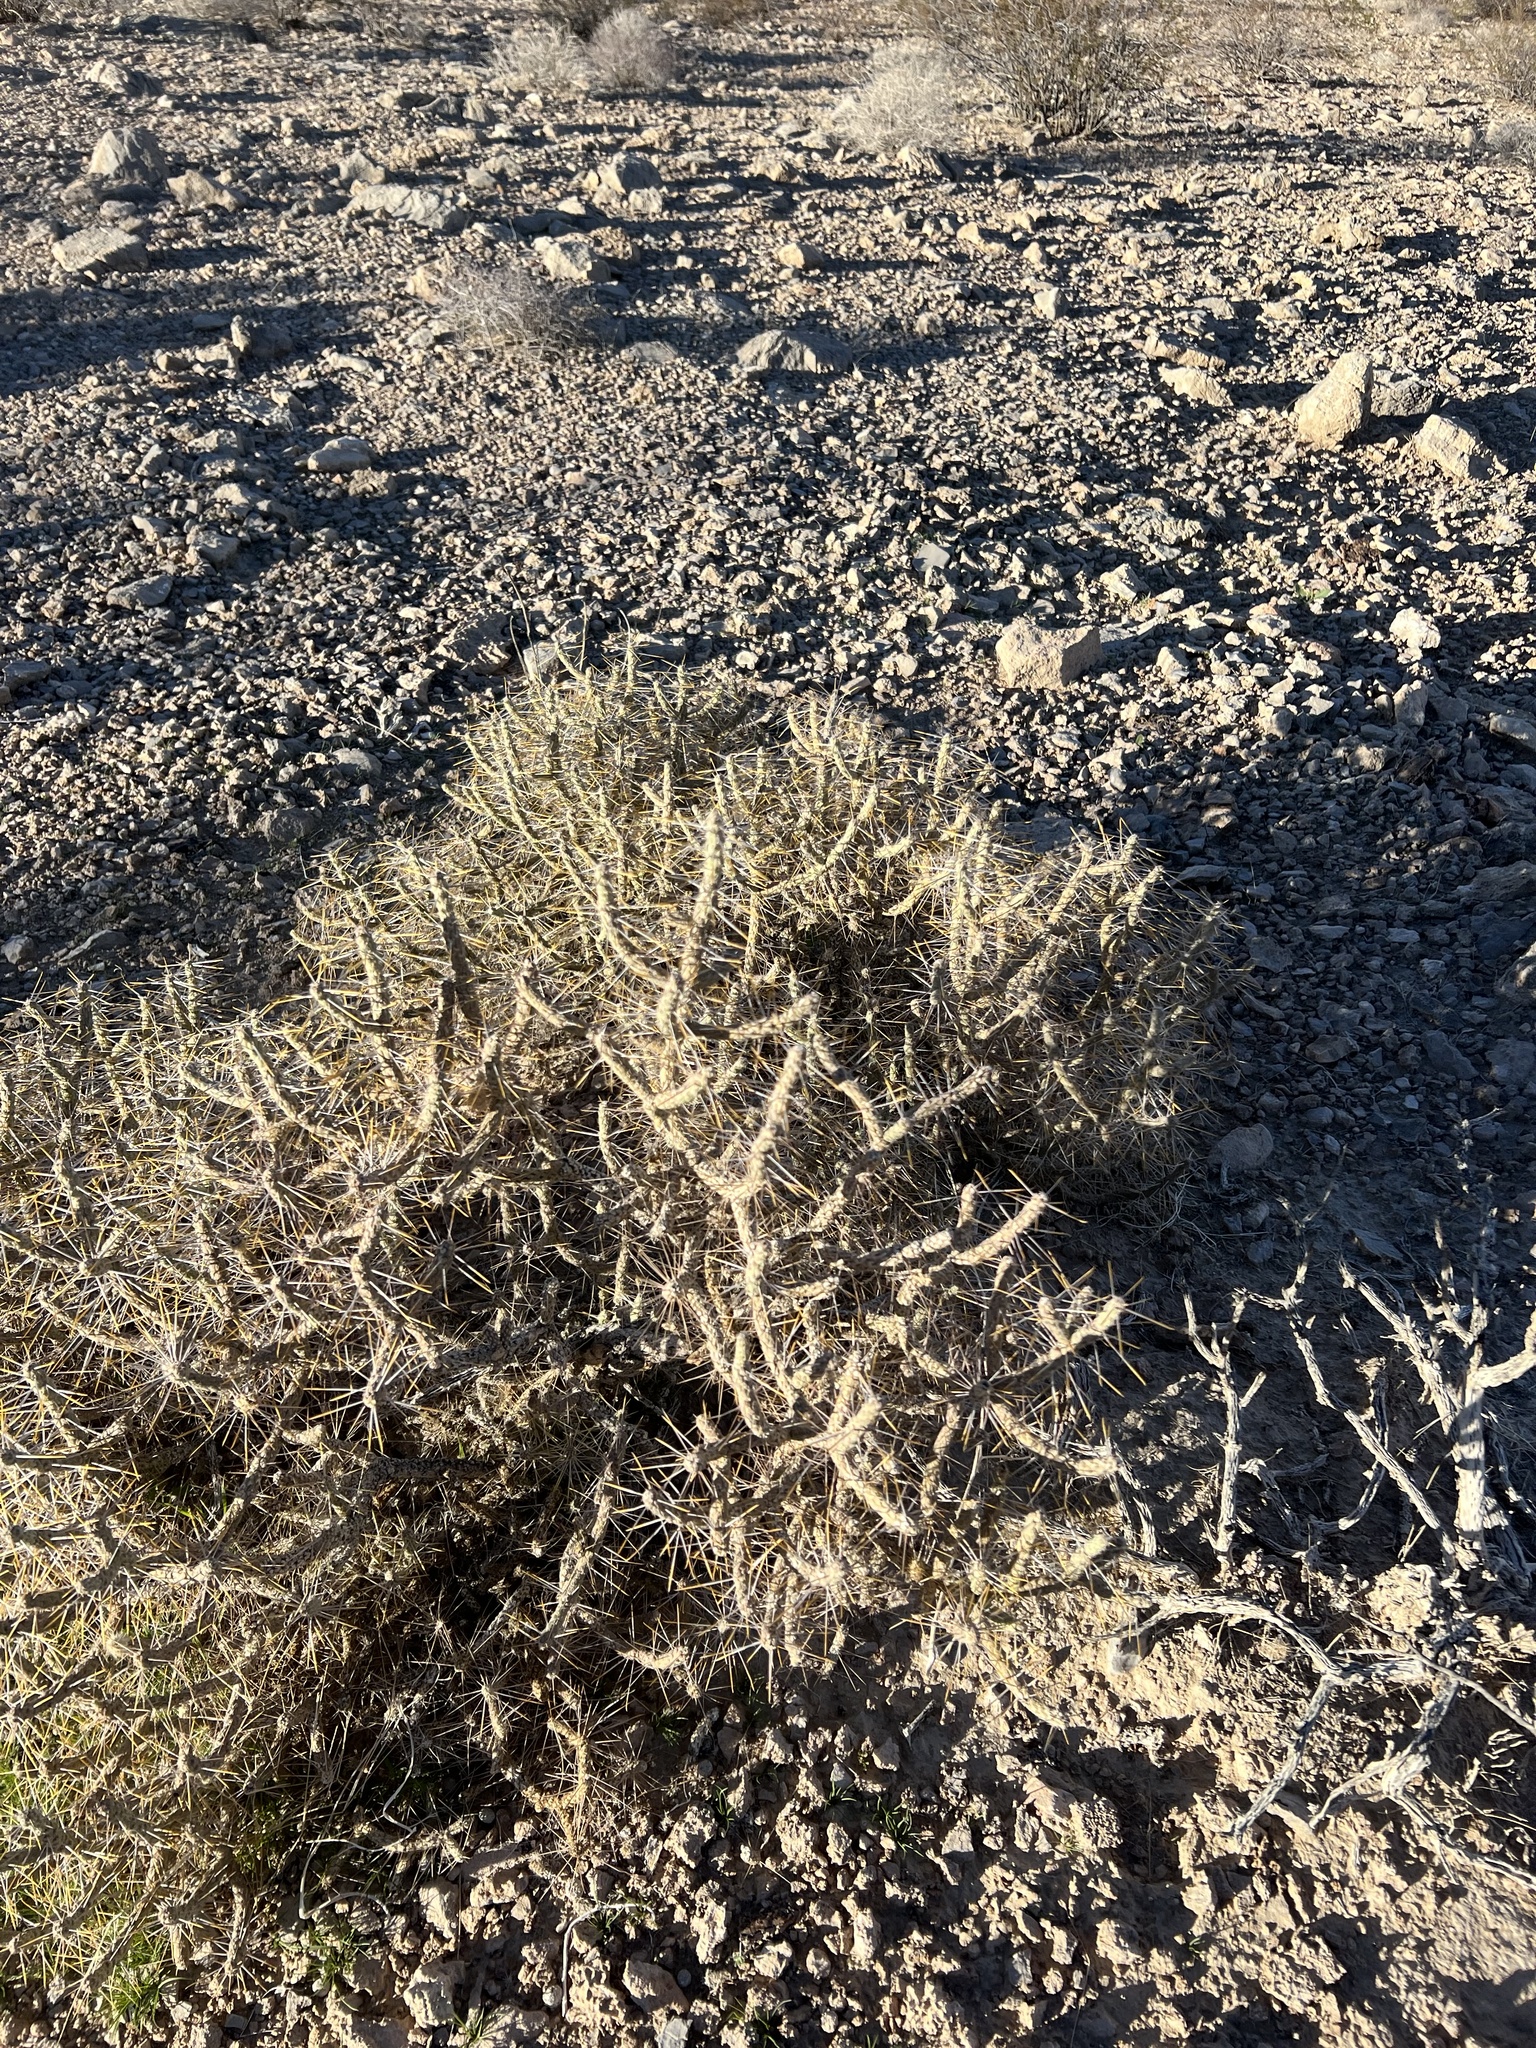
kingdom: Plantae
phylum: Tracheophyta
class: Magnoliopsida
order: Caryophyllales
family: Cactaceae
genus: Cylindropuntia
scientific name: Cylindropuntia ramosissima
